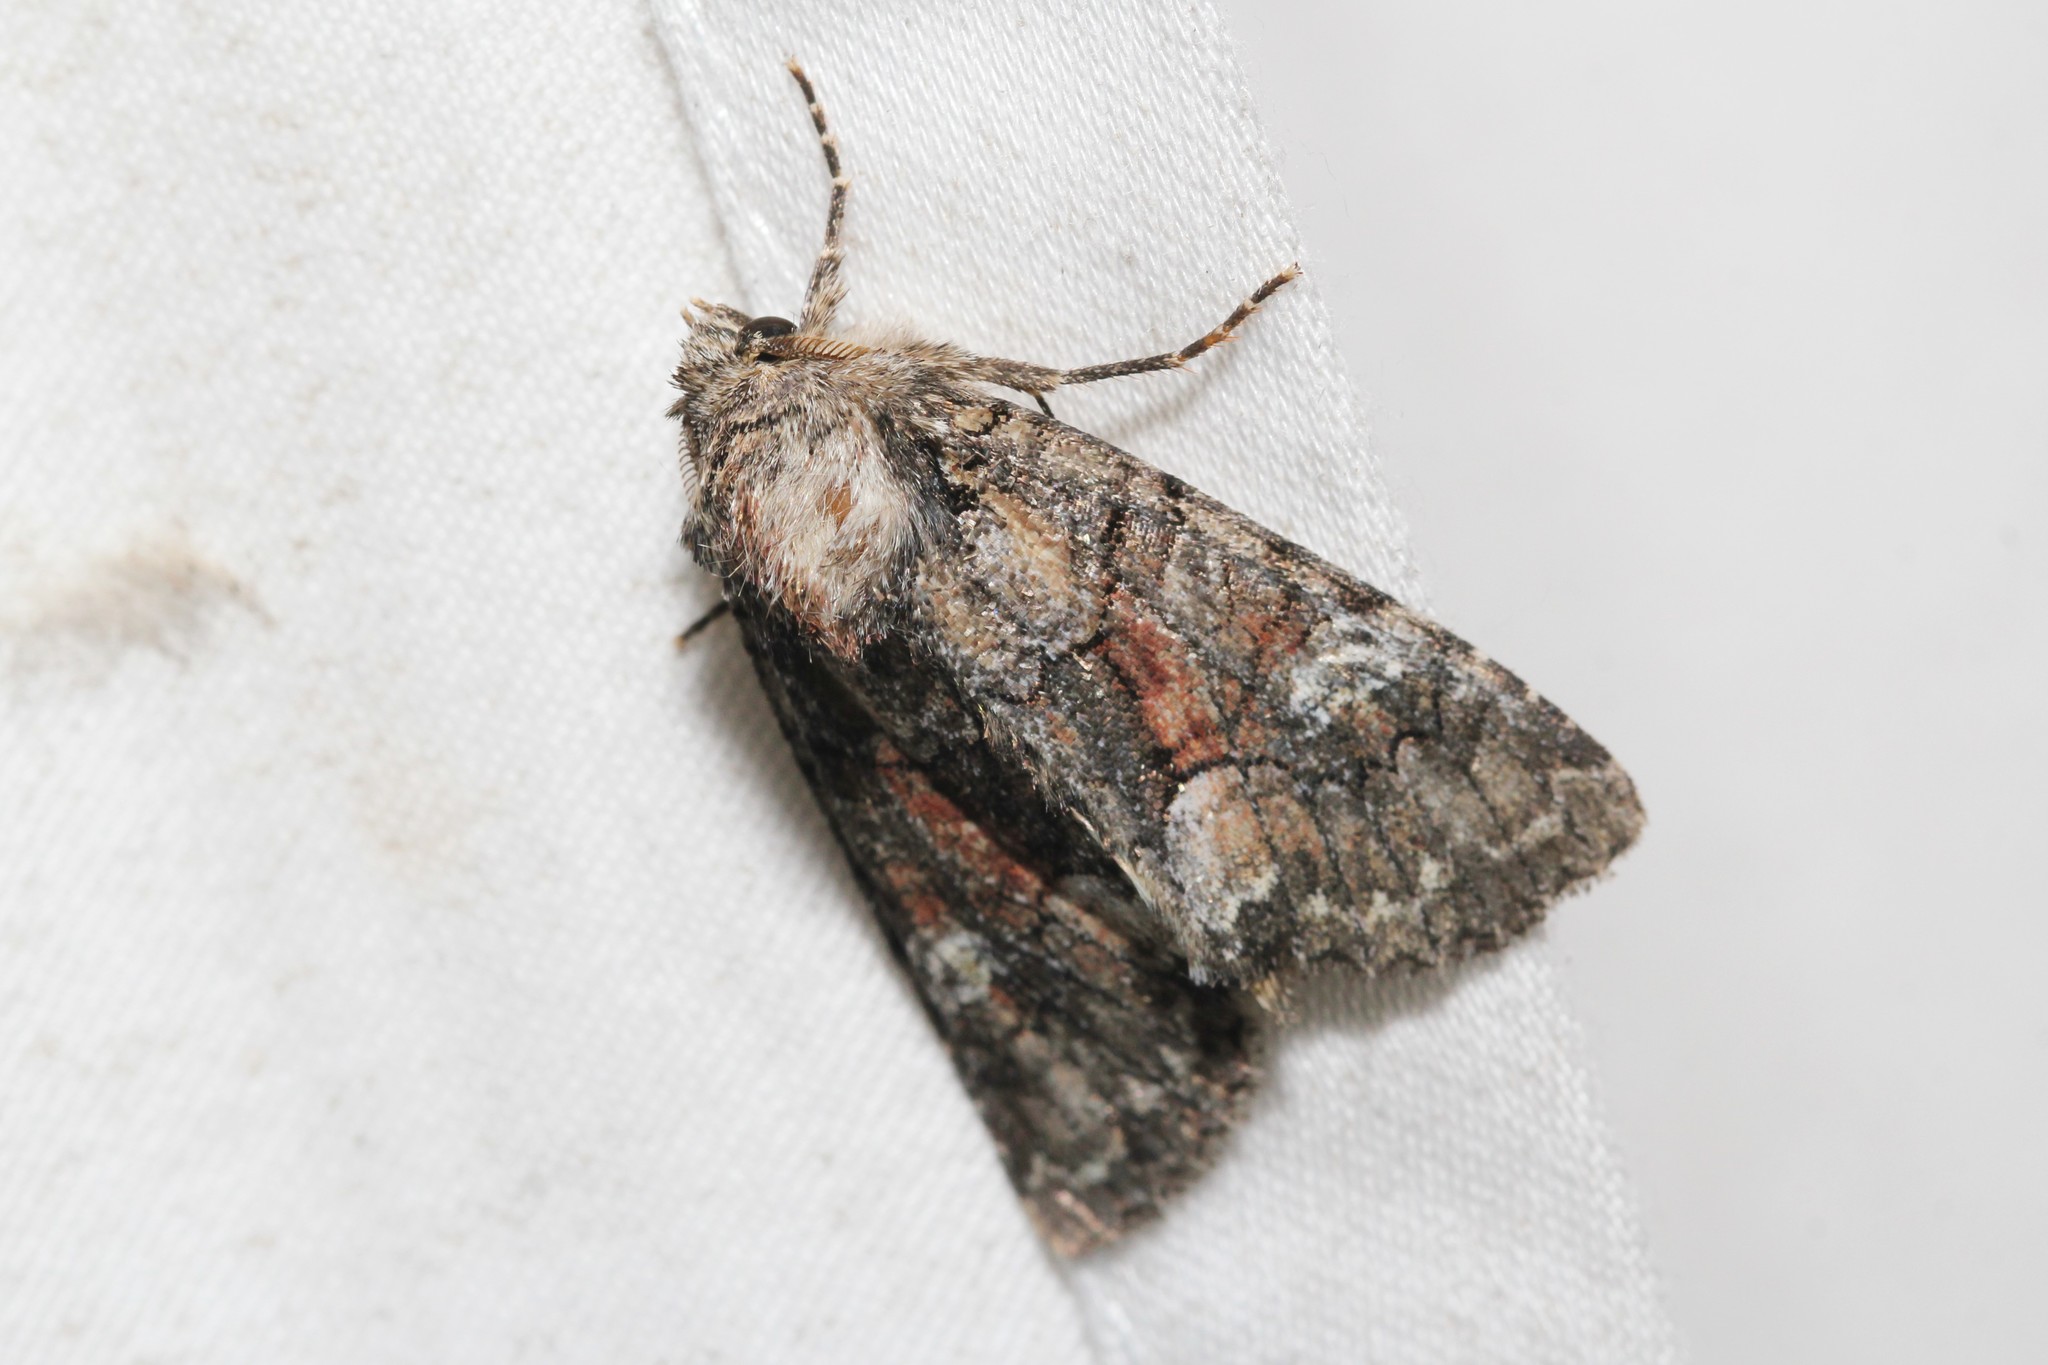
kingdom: Animalia
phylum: Arthropoda
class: Insecta
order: Lepidoptera
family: Noctuidae
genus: Fishia
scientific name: Fishia illocata
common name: Wandering brocade moth
